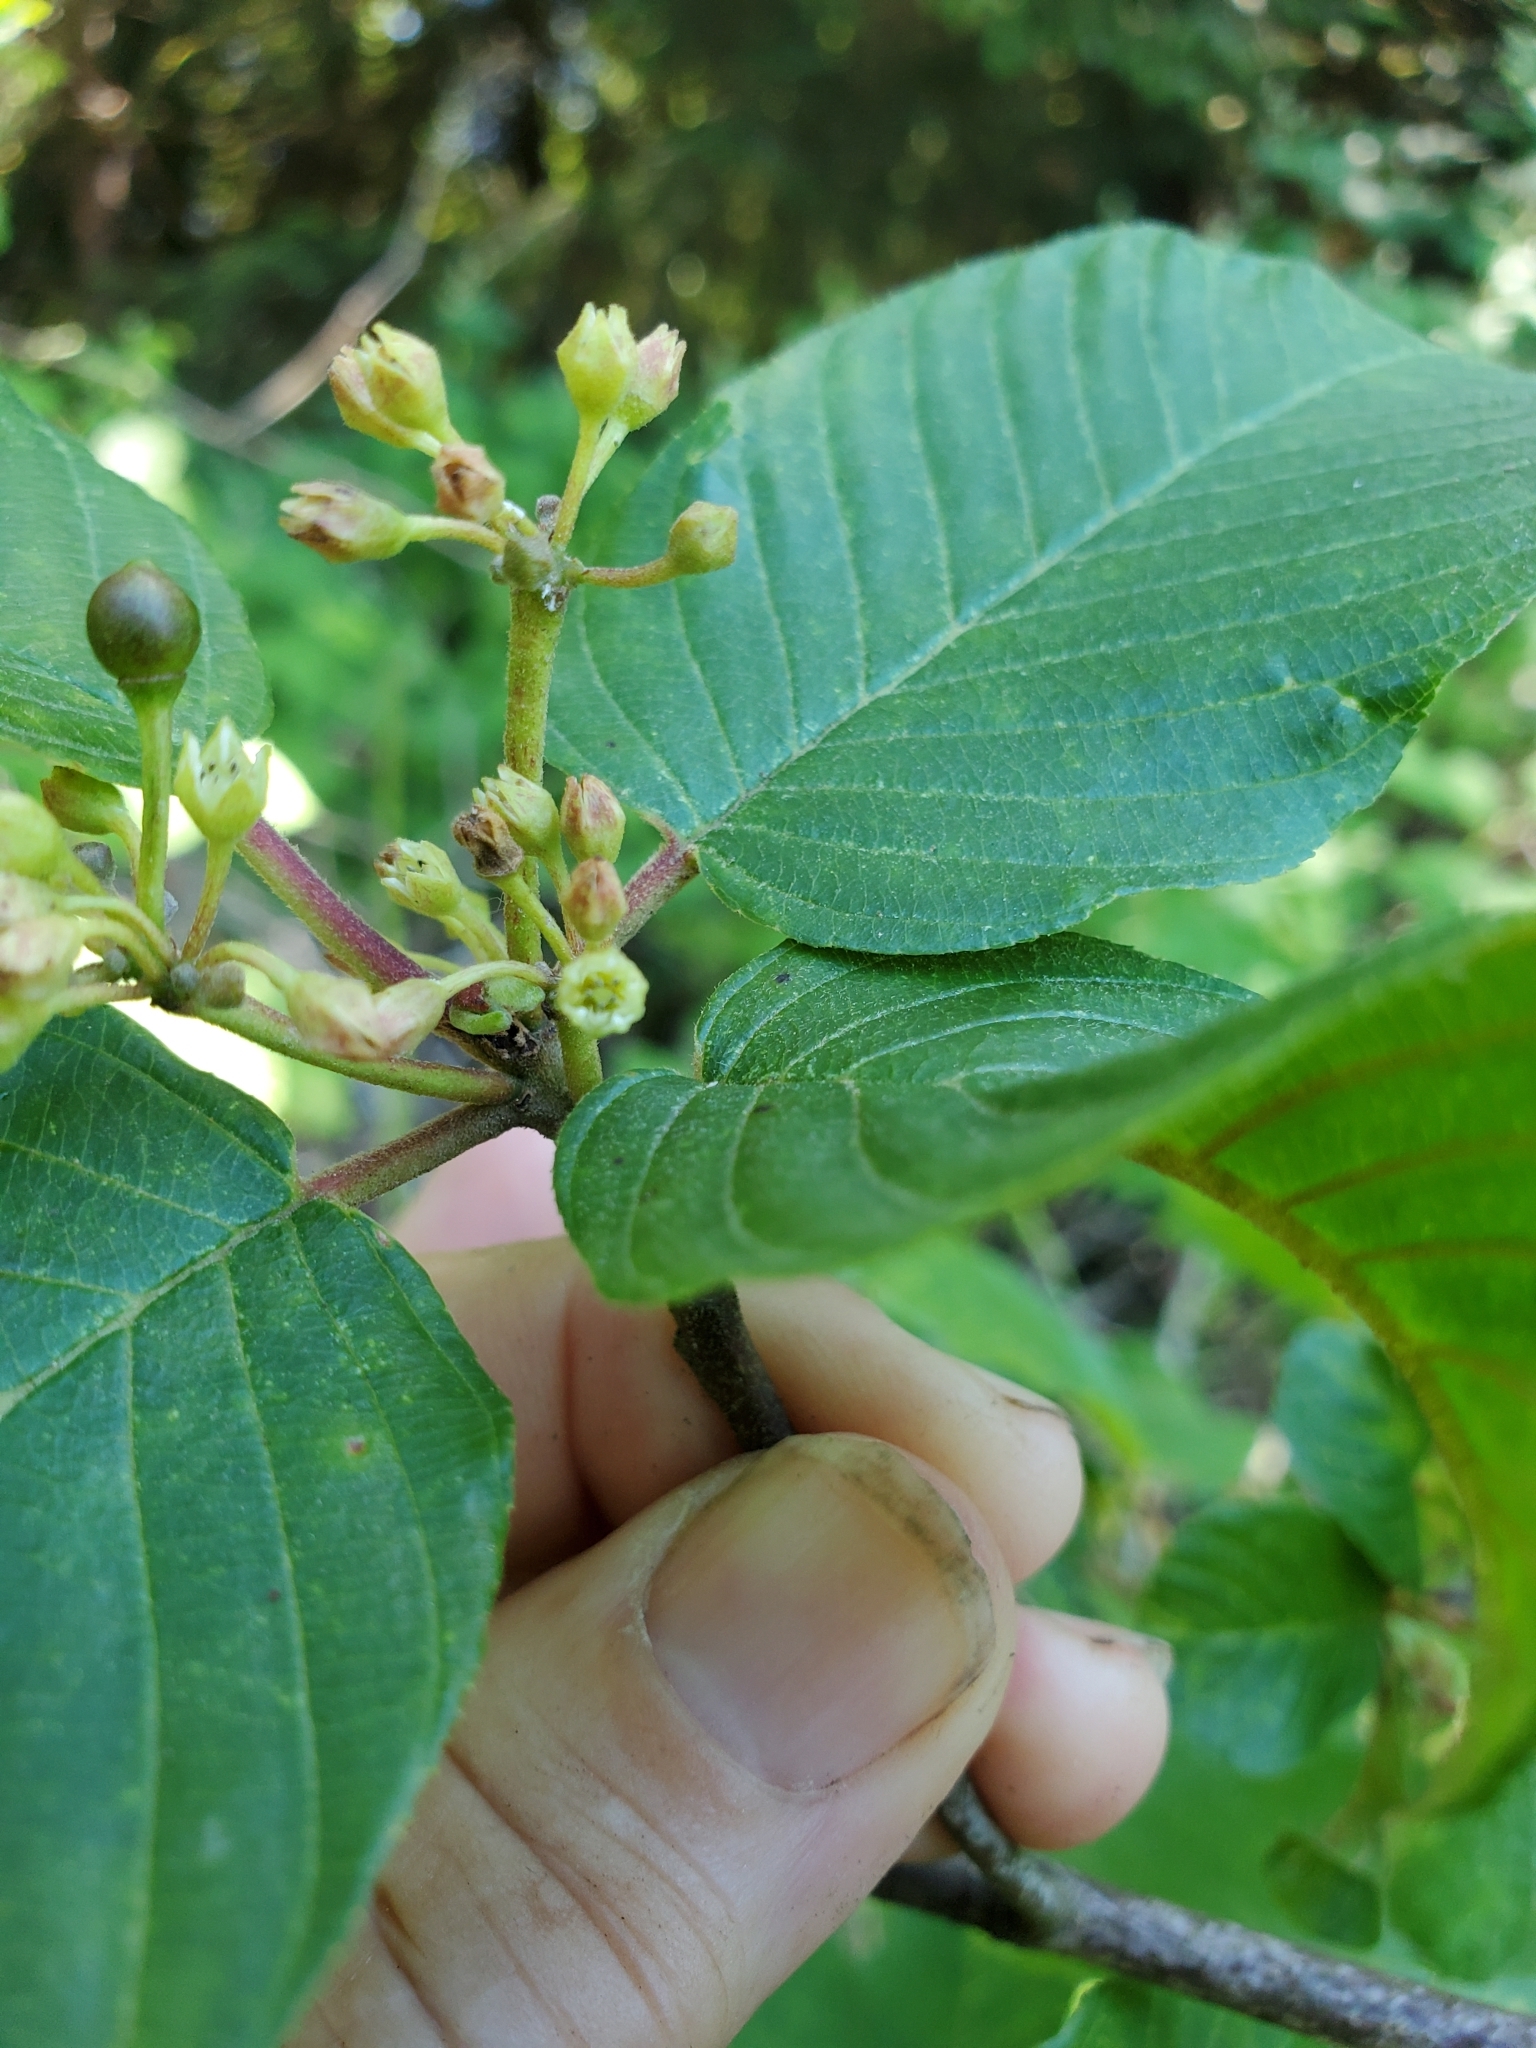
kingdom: Plantae
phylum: Tracheophyta
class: Magnoliopsida
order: Rosales
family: Rhamnaceae
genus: Frangula
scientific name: Frangula purshiana
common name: Cascara buckthorn
